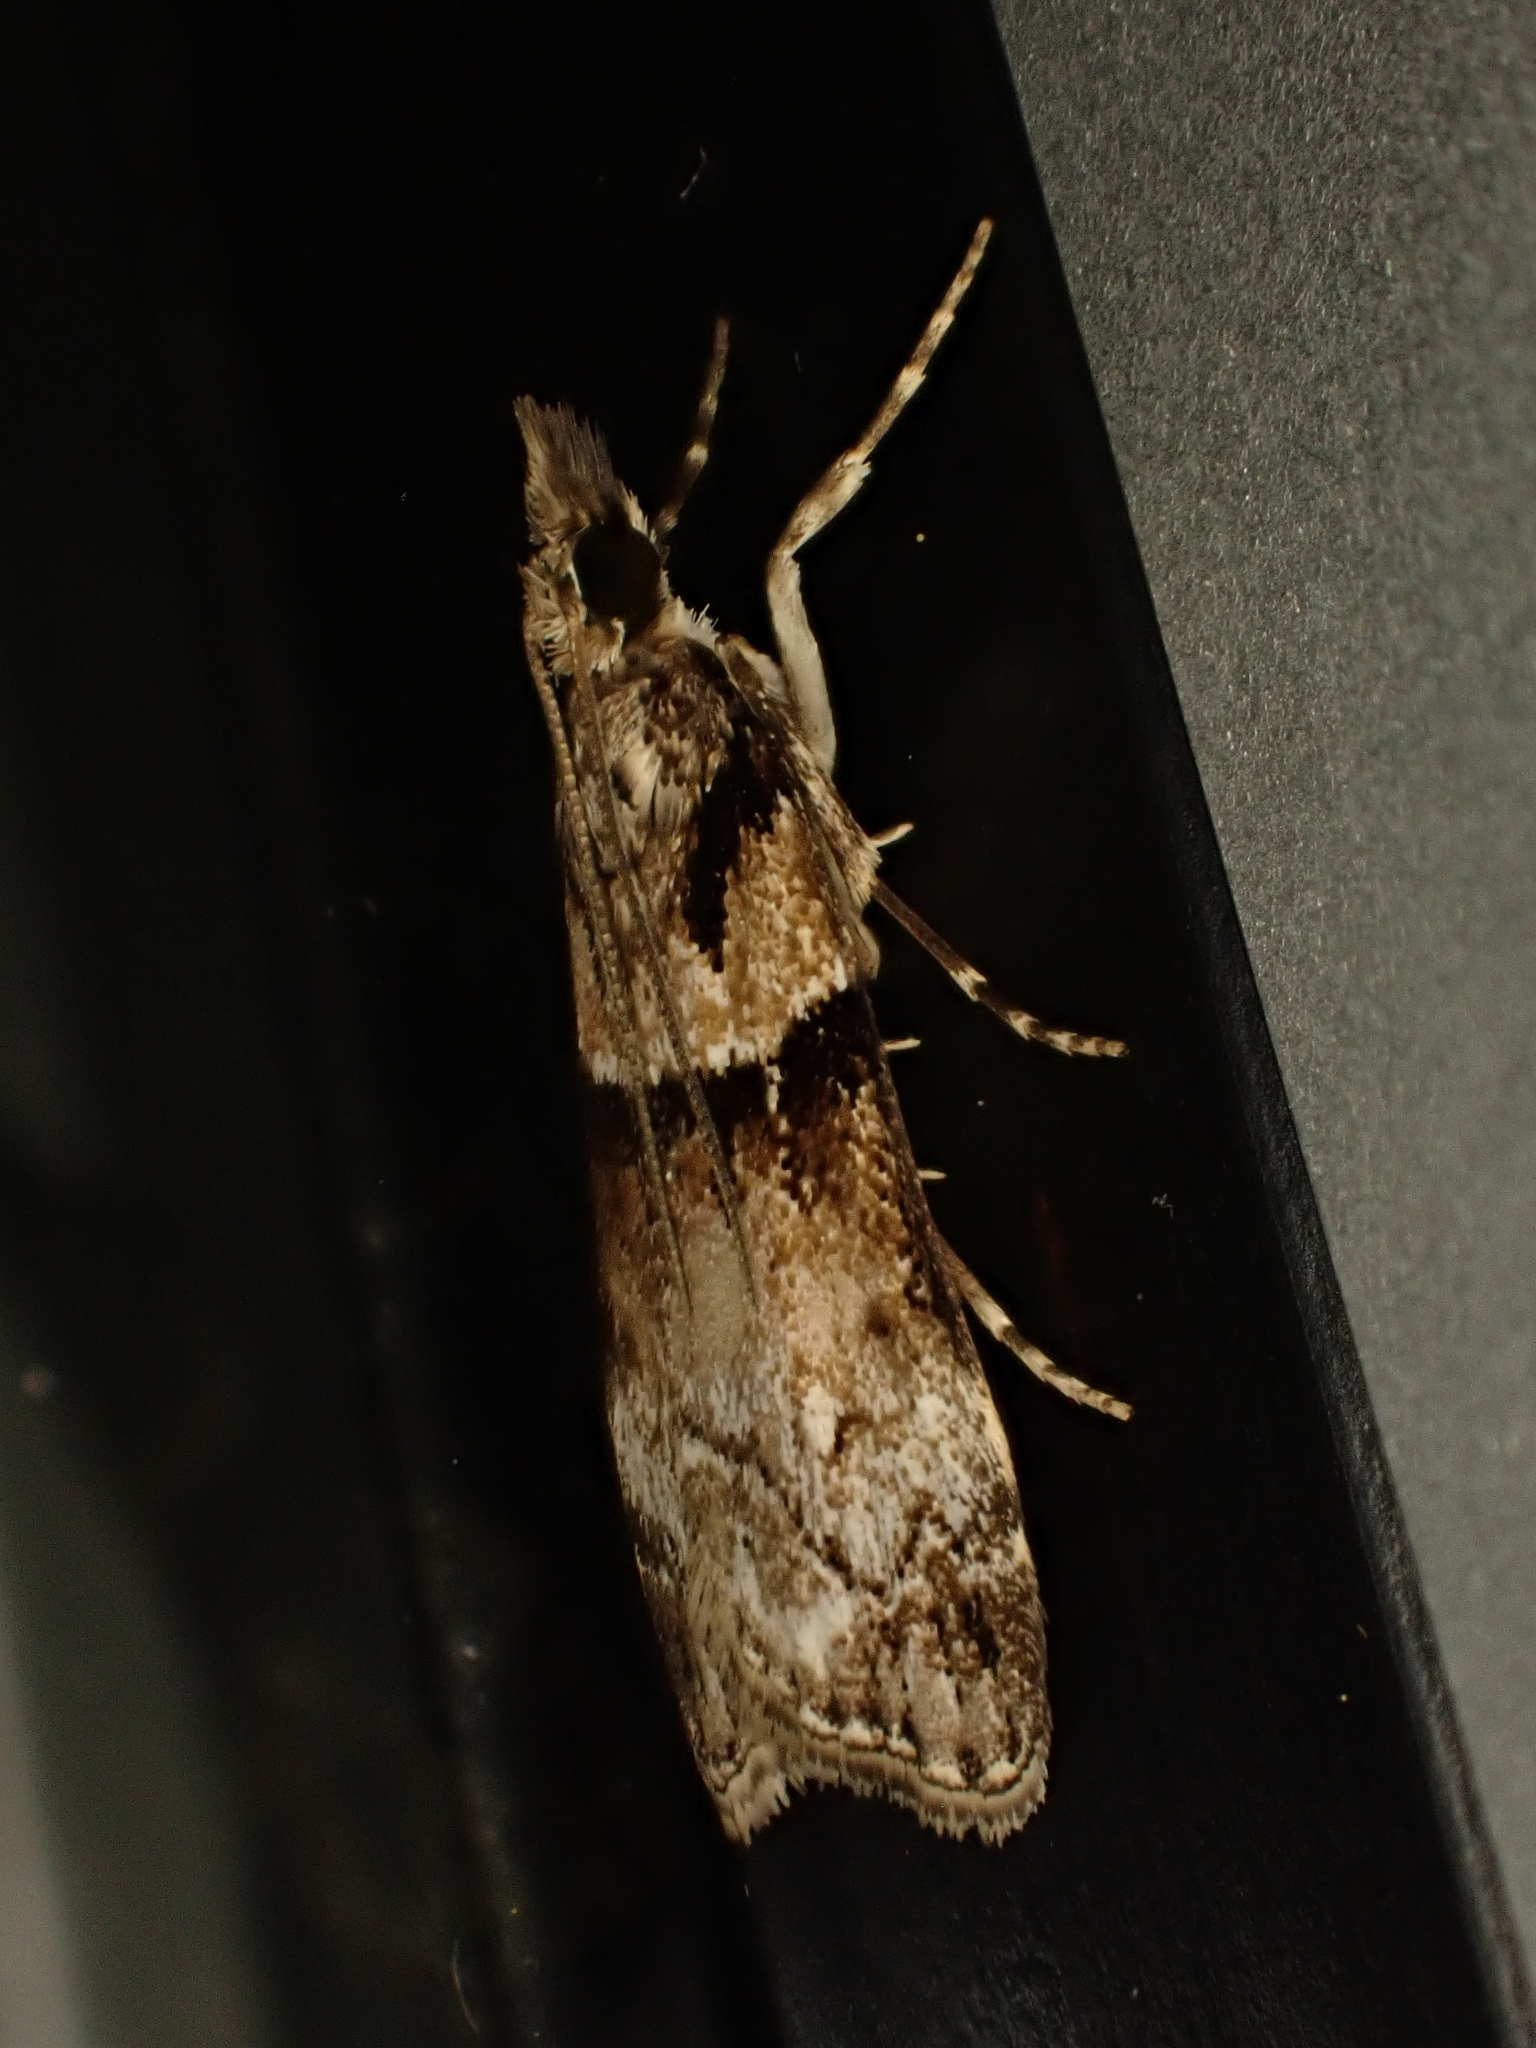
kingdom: Animalia
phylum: Arthropoda
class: Insecta
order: Lepidoptera
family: Crambidae
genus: Eudonia
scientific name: Eudonia colpota
